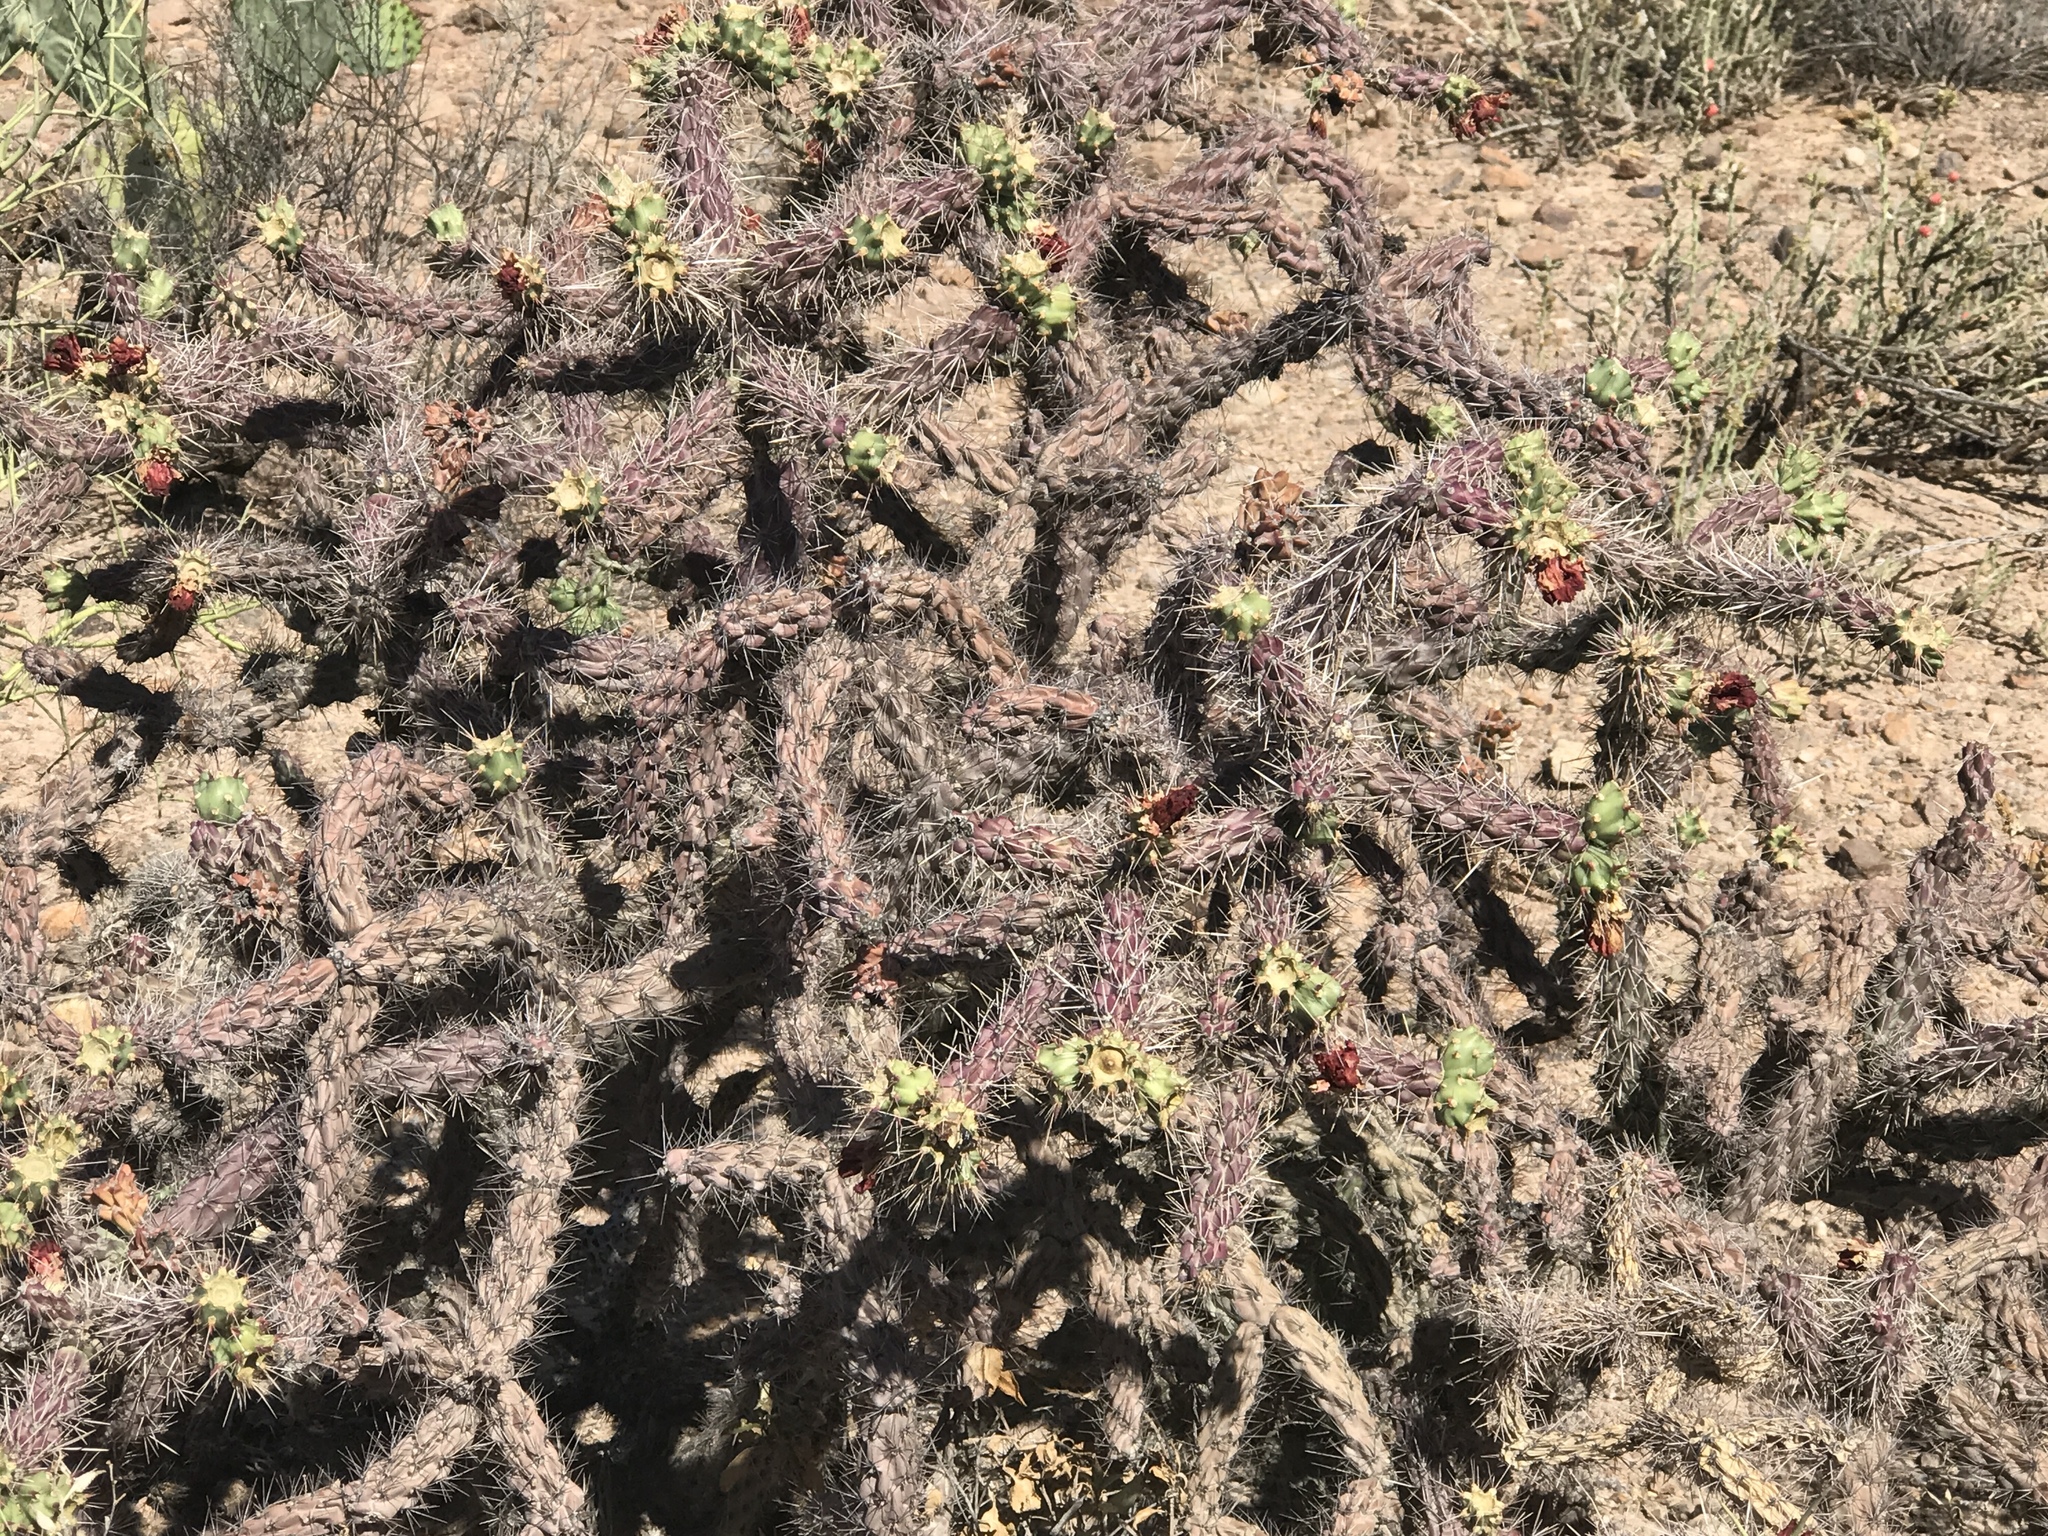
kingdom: Plantae
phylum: Tracheophyta
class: Magnoliopsida
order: Caryophyllales
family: Cactaceae
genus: Cylindropuntia
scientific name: Cylindropuntia thurberi
